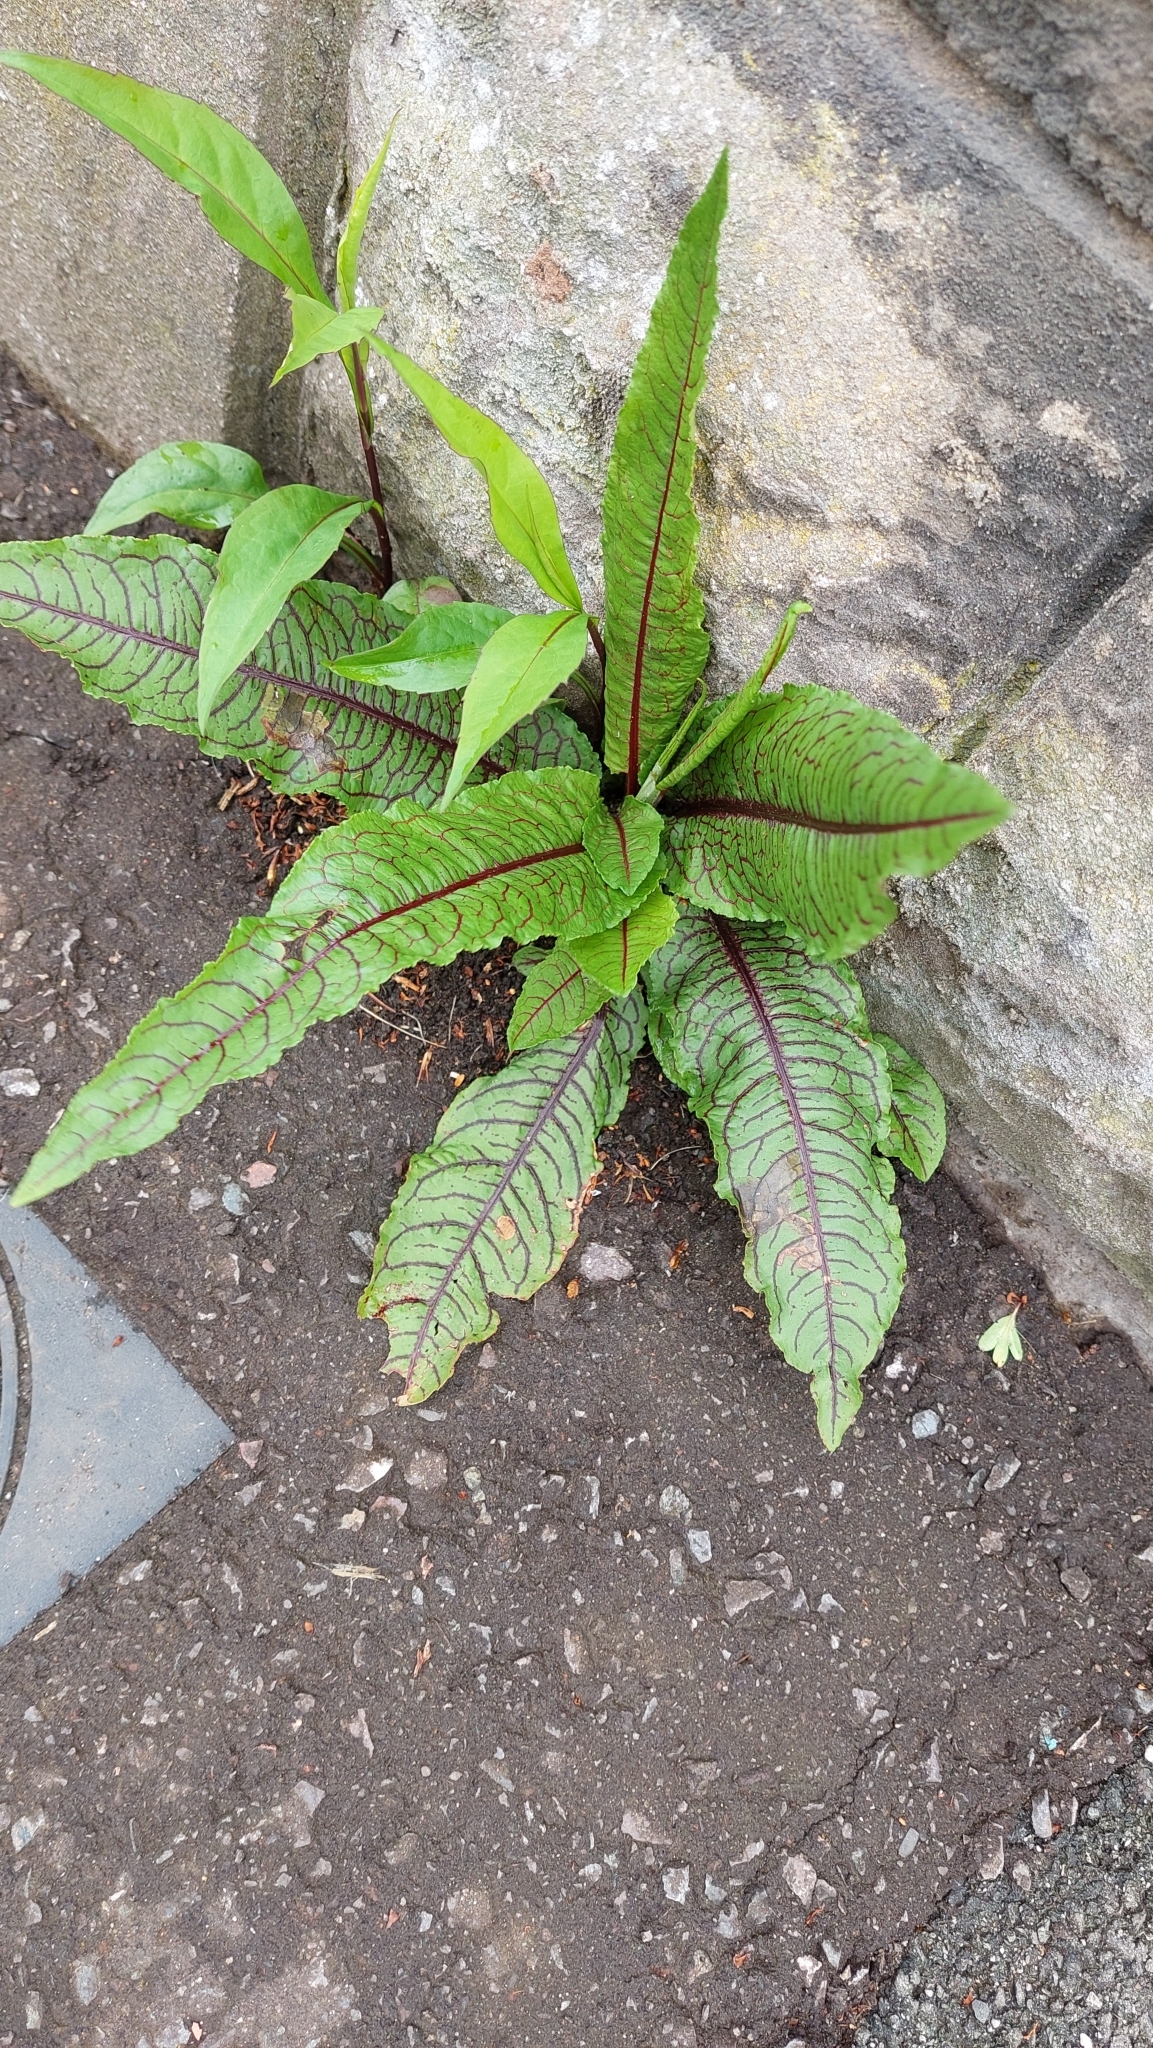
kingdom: Plantae
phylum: Tracheophyta
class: Magnoliopsida
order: Caryophyllales
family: Polygonaceae
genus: Rumex
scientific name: Rumex sanguineus
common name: Wood dock
